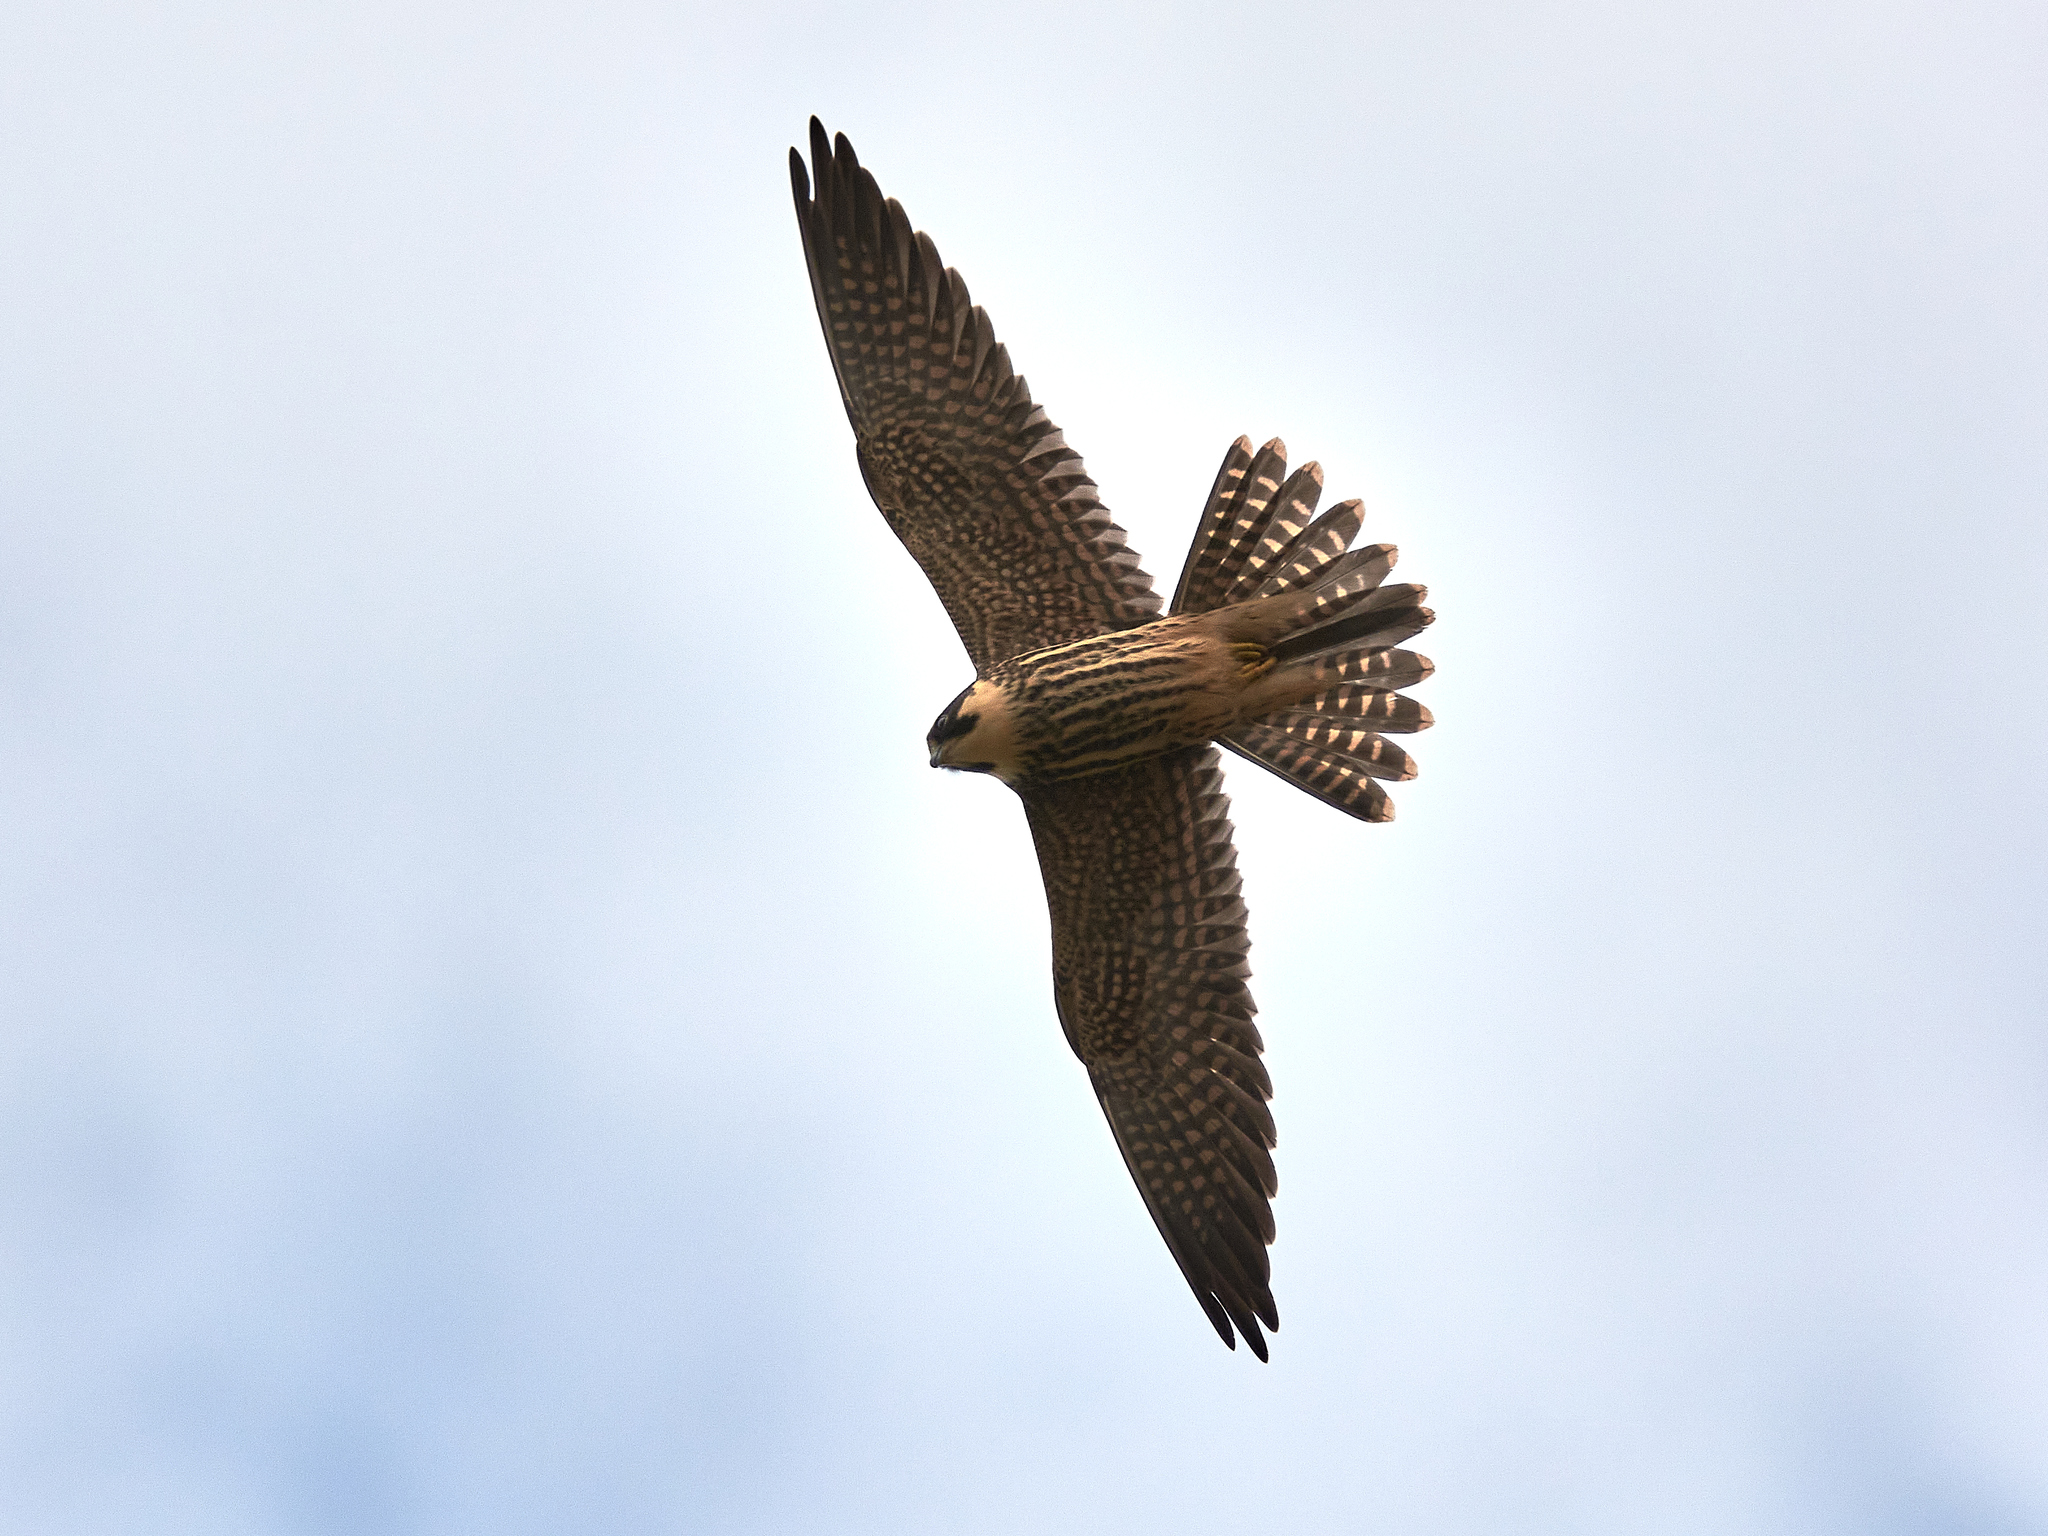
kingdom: Animalia
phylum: Chordata
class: Aves
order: Falconiformes
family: Falconidae
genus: Falco
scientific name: Falco subbuteo
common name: Eurasian hobby
